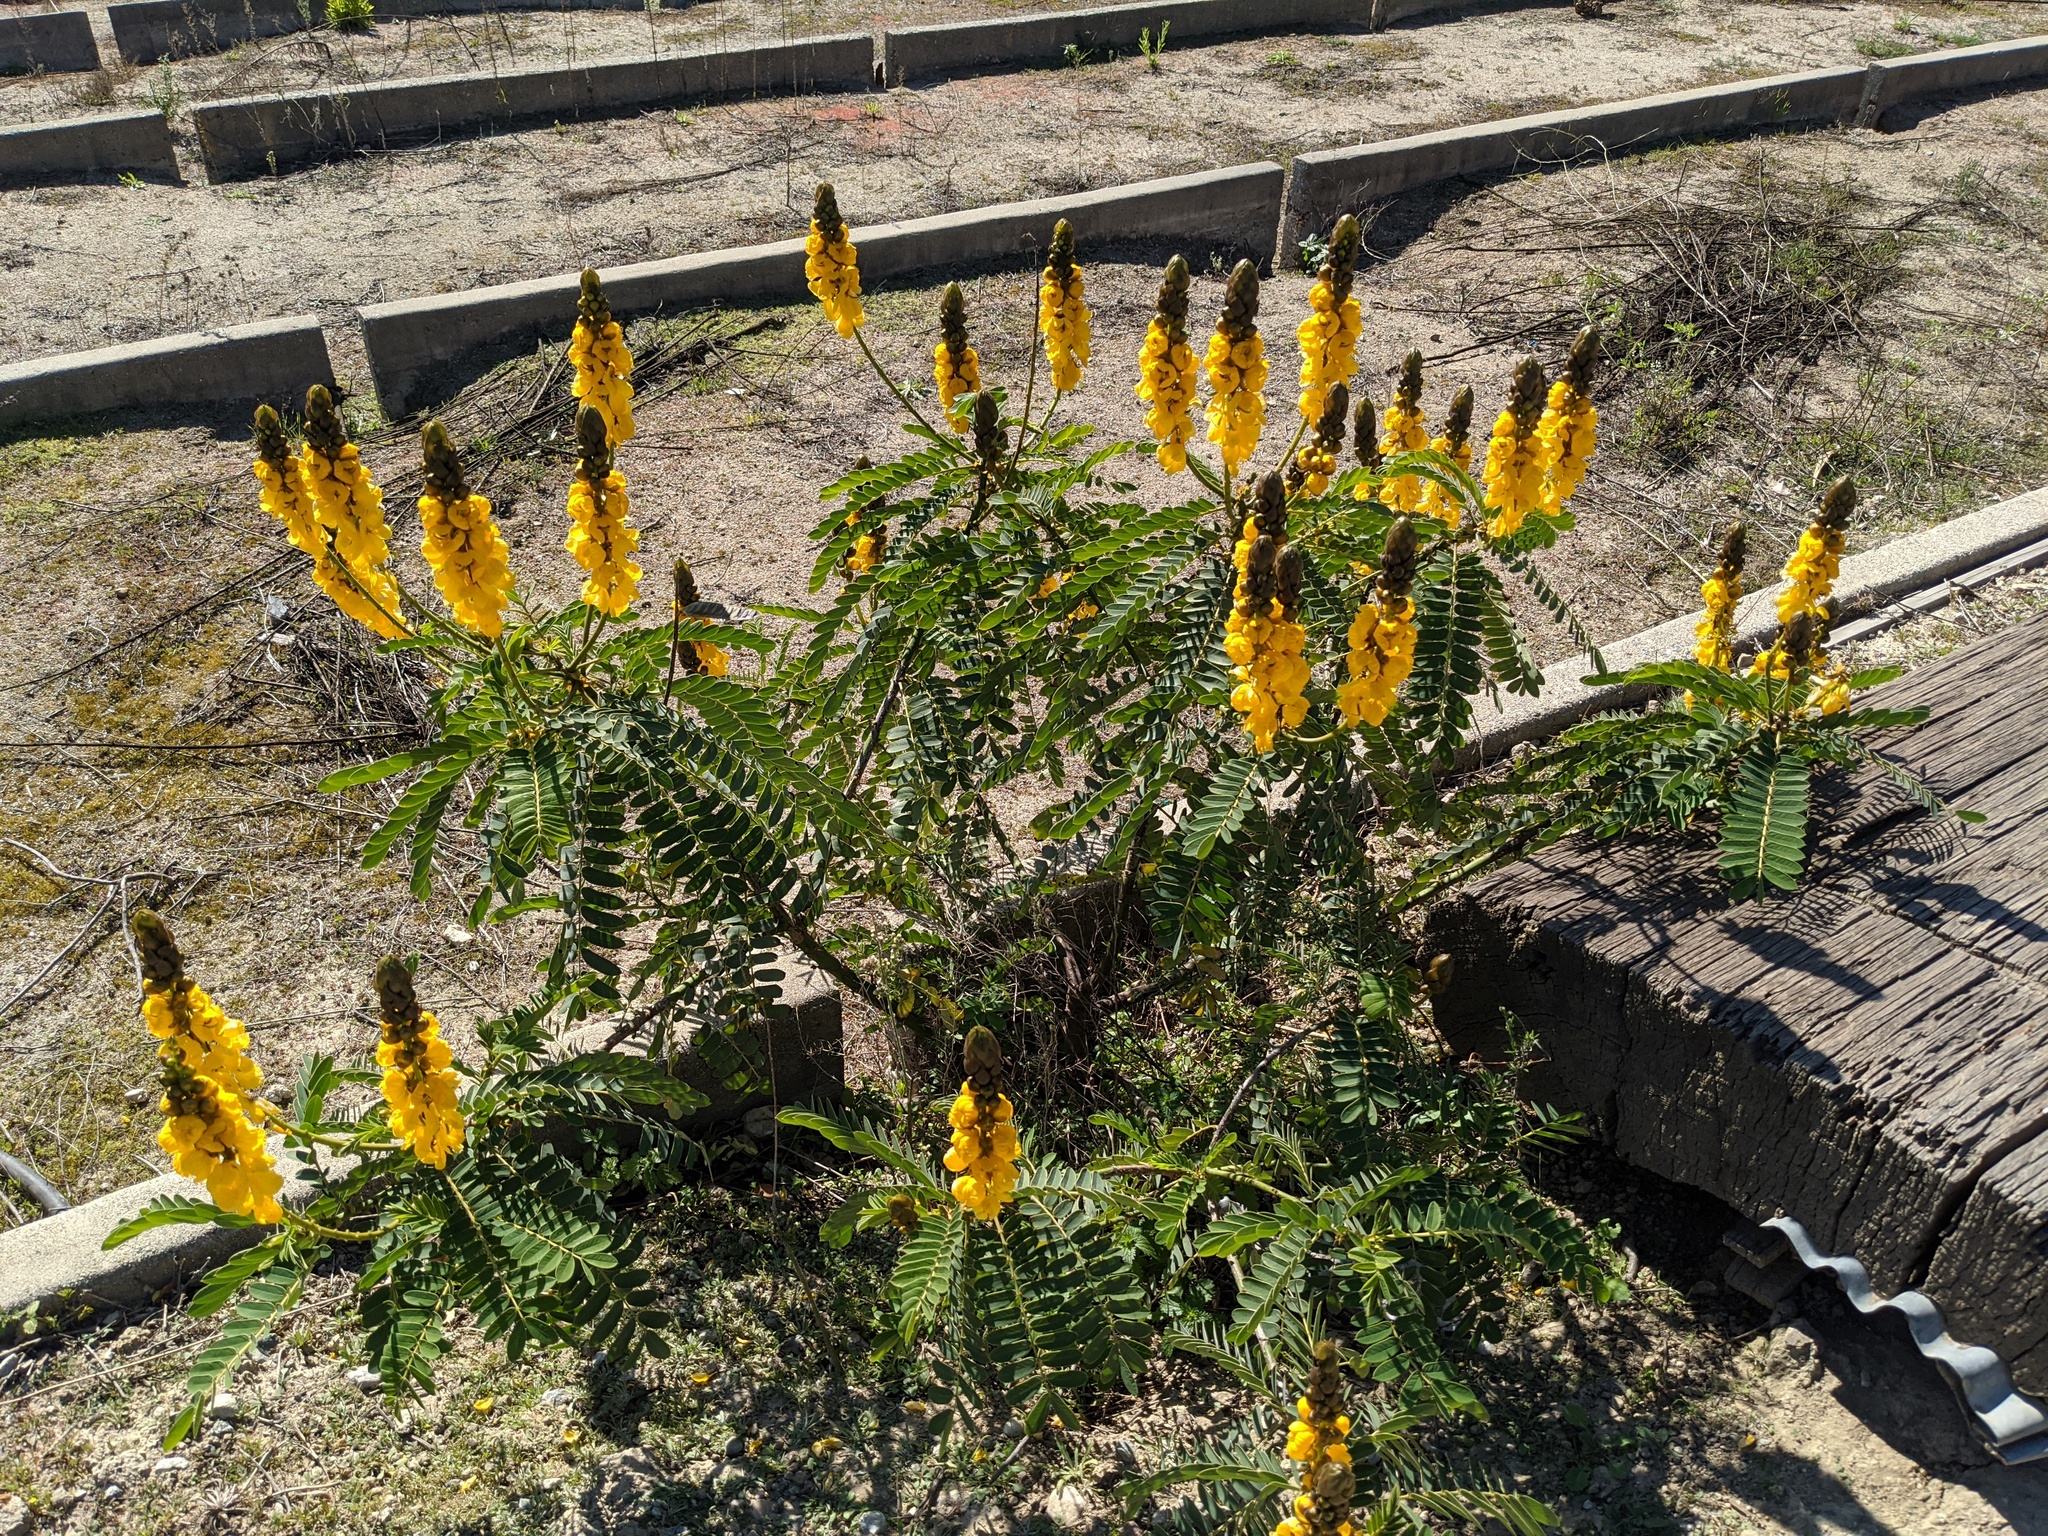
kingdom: Plantae
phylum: Tracheophyta
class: Magnoliopsida
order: Fabales
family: Fabaceae
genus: Senna
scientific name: Senna didymobotrya
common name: African senna
